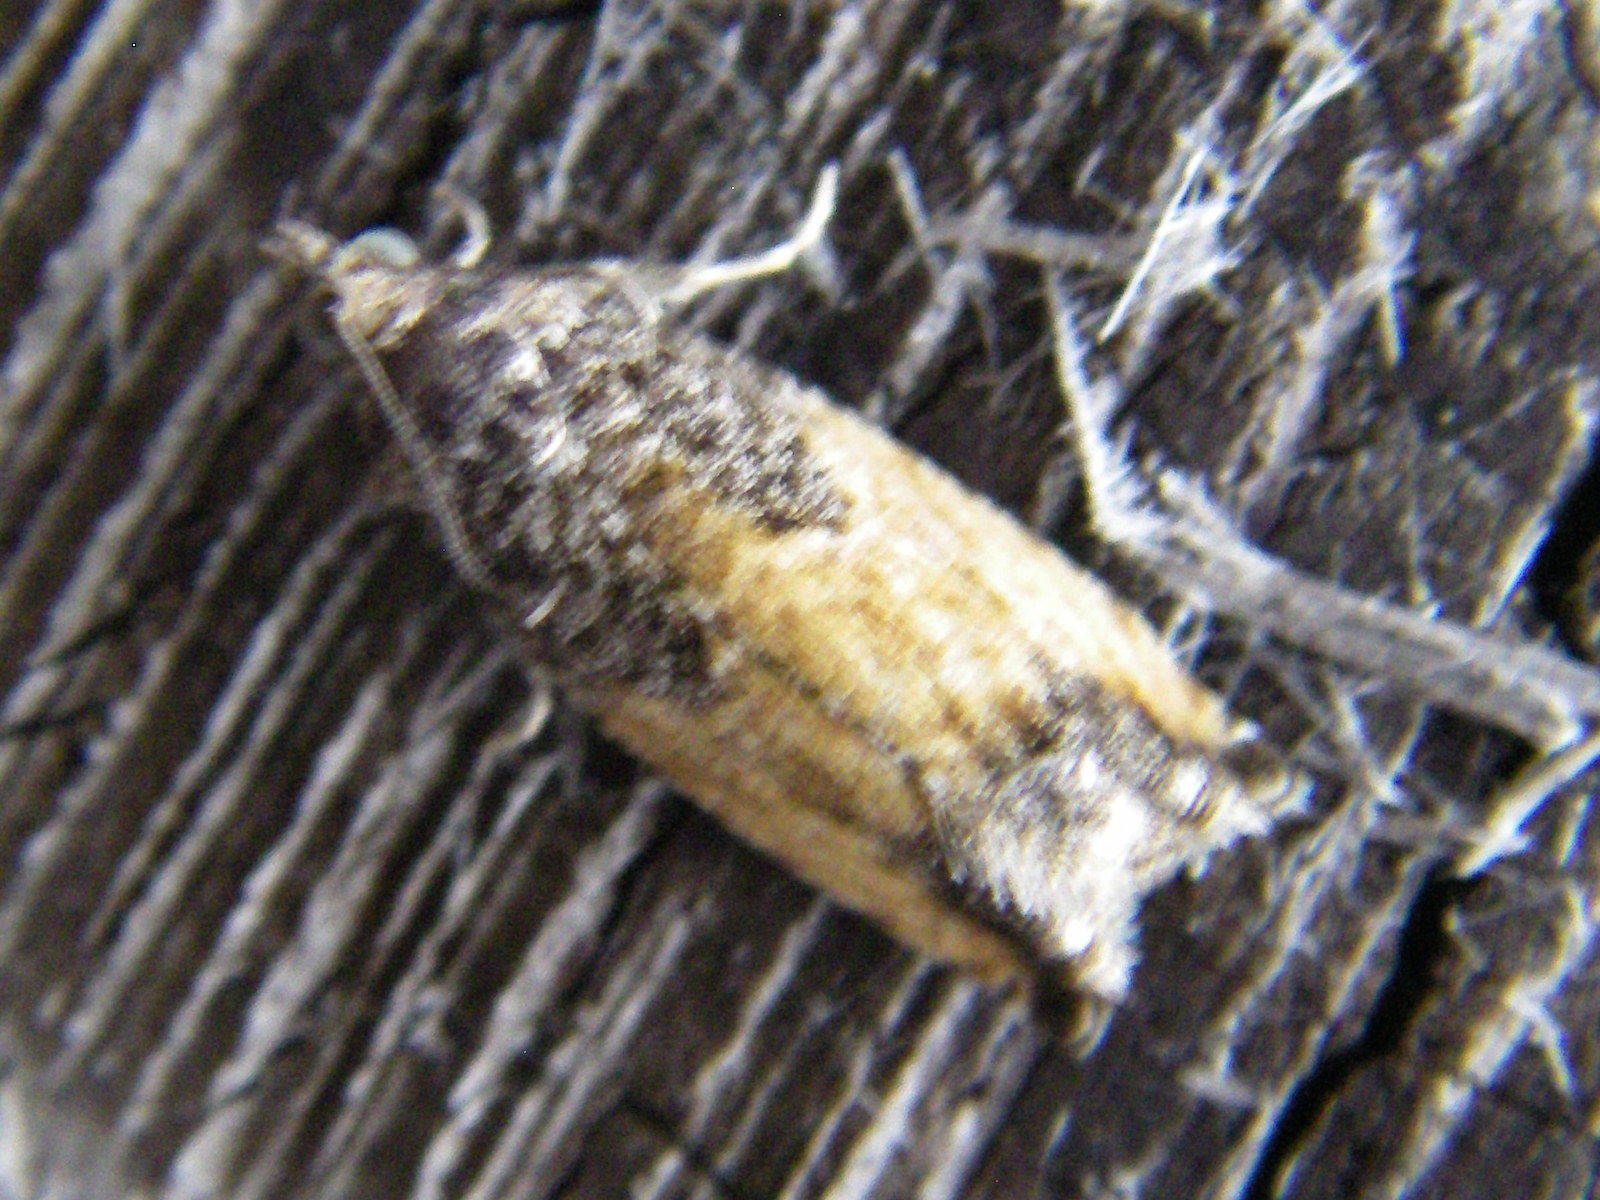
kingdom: Animalia
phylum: Arthropoda
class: Insecta
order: Lepidoptera
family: Tortricidae
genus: Epinotia
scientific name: Epinotia nisella
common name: Grey poplar bell
